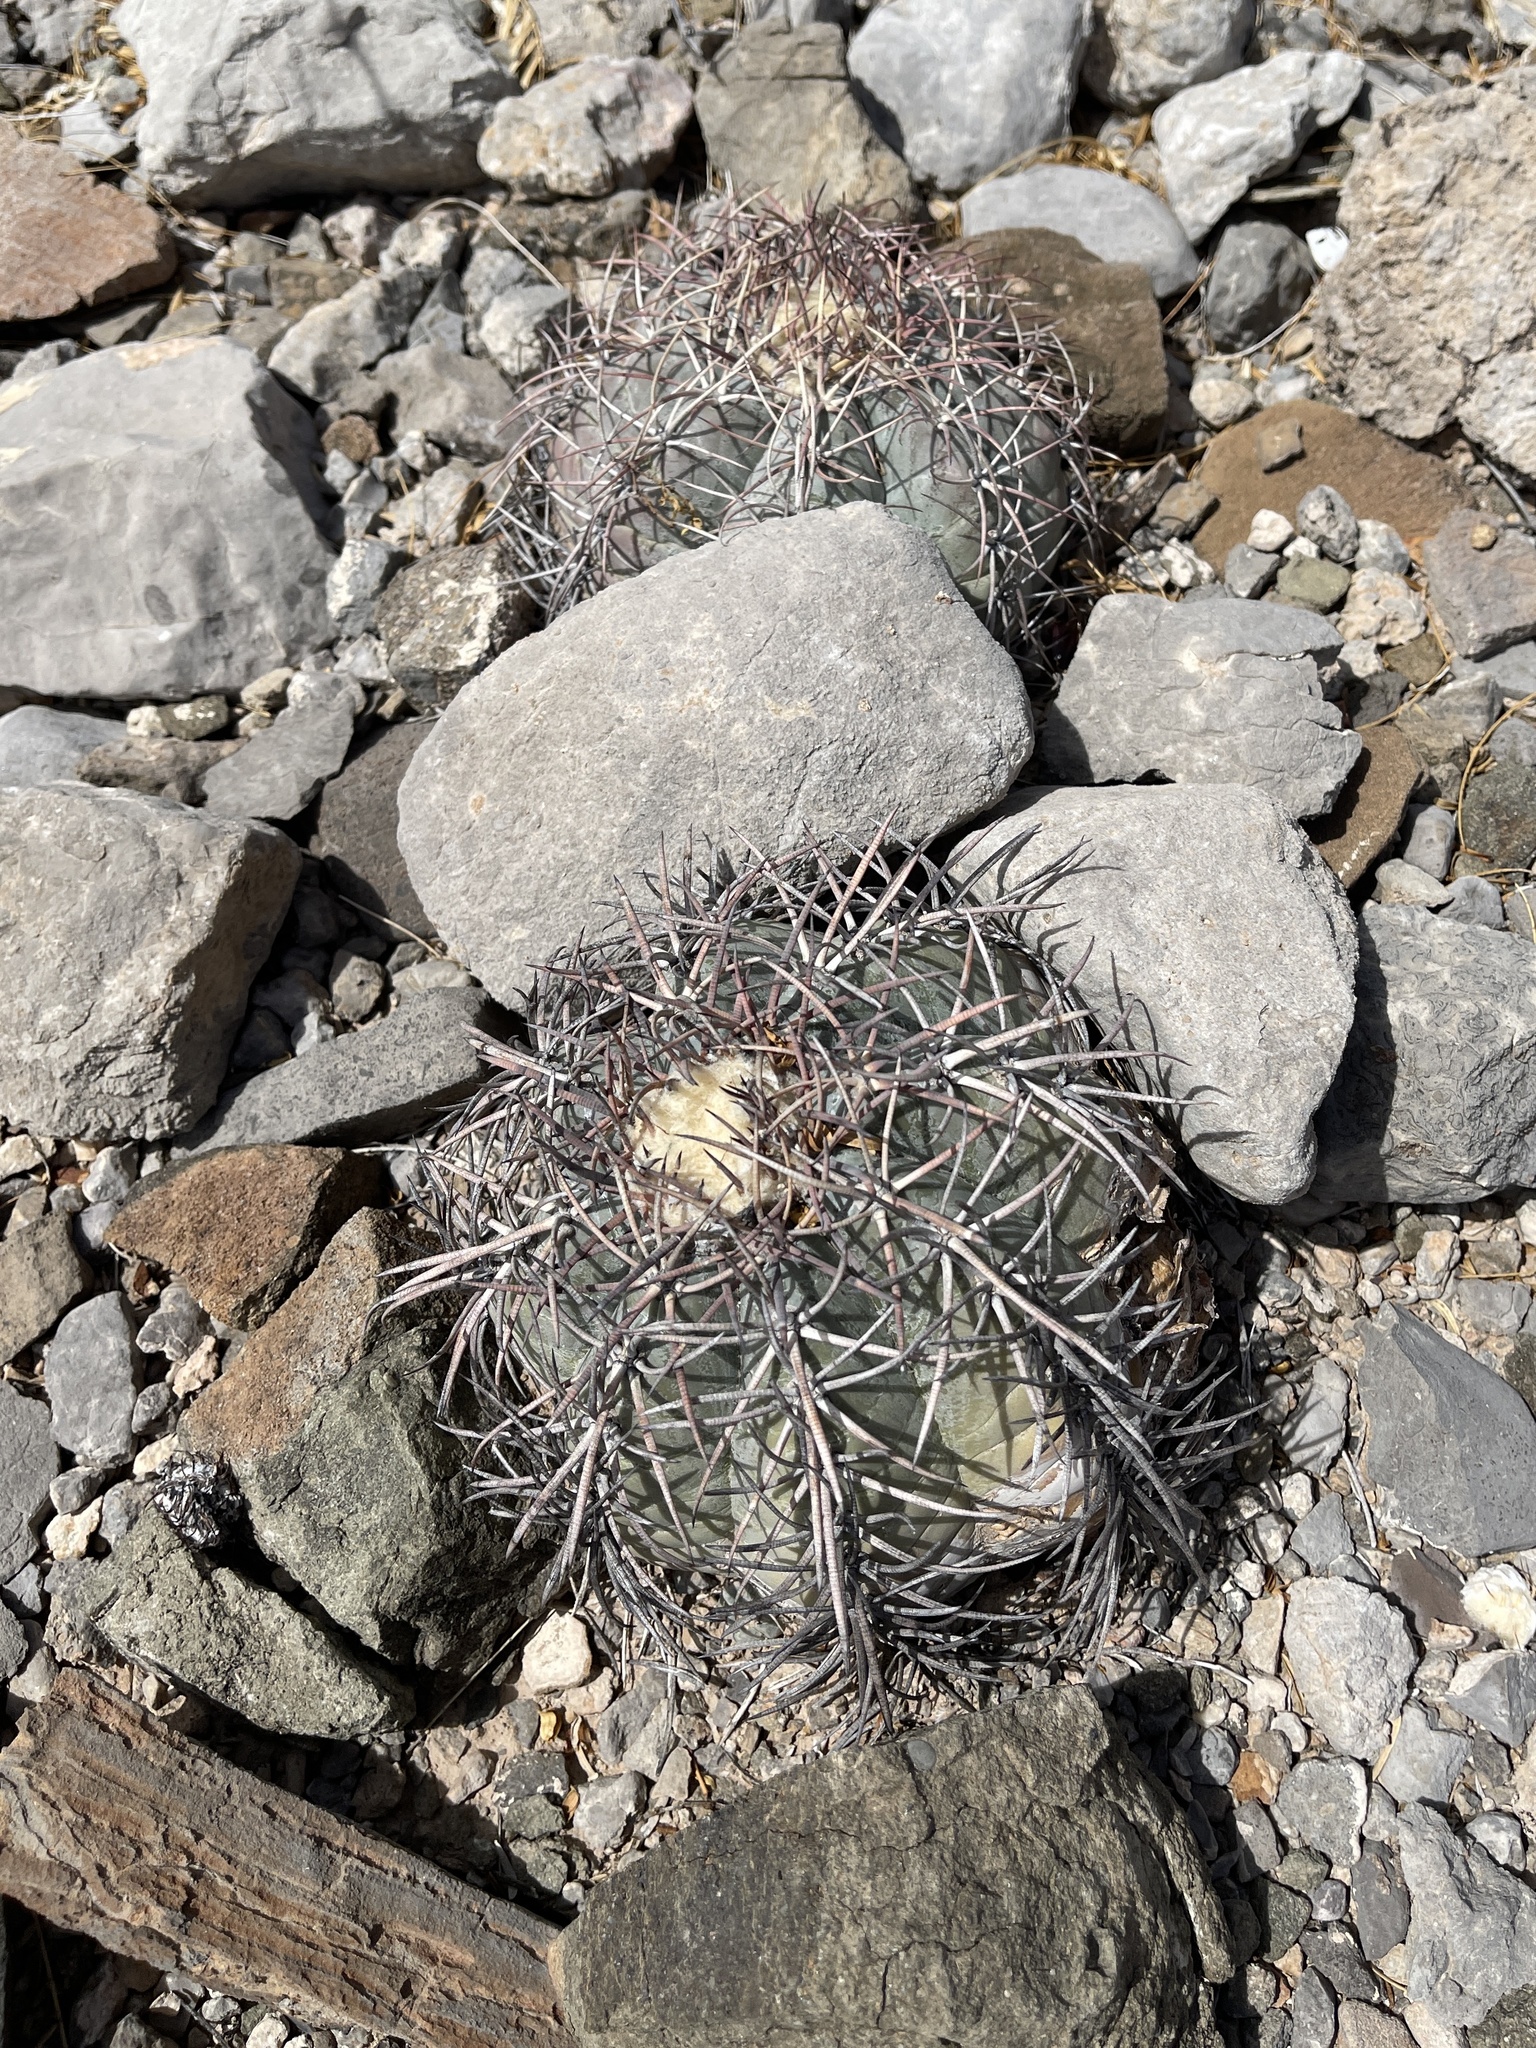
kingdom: Plantae
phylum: Tracheophyta
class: Magnoliopsida
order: Caryophyllales
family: Cactaceae
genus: Echinocactus
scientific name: Echinocactus horizonthalonius
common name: Devilshead
